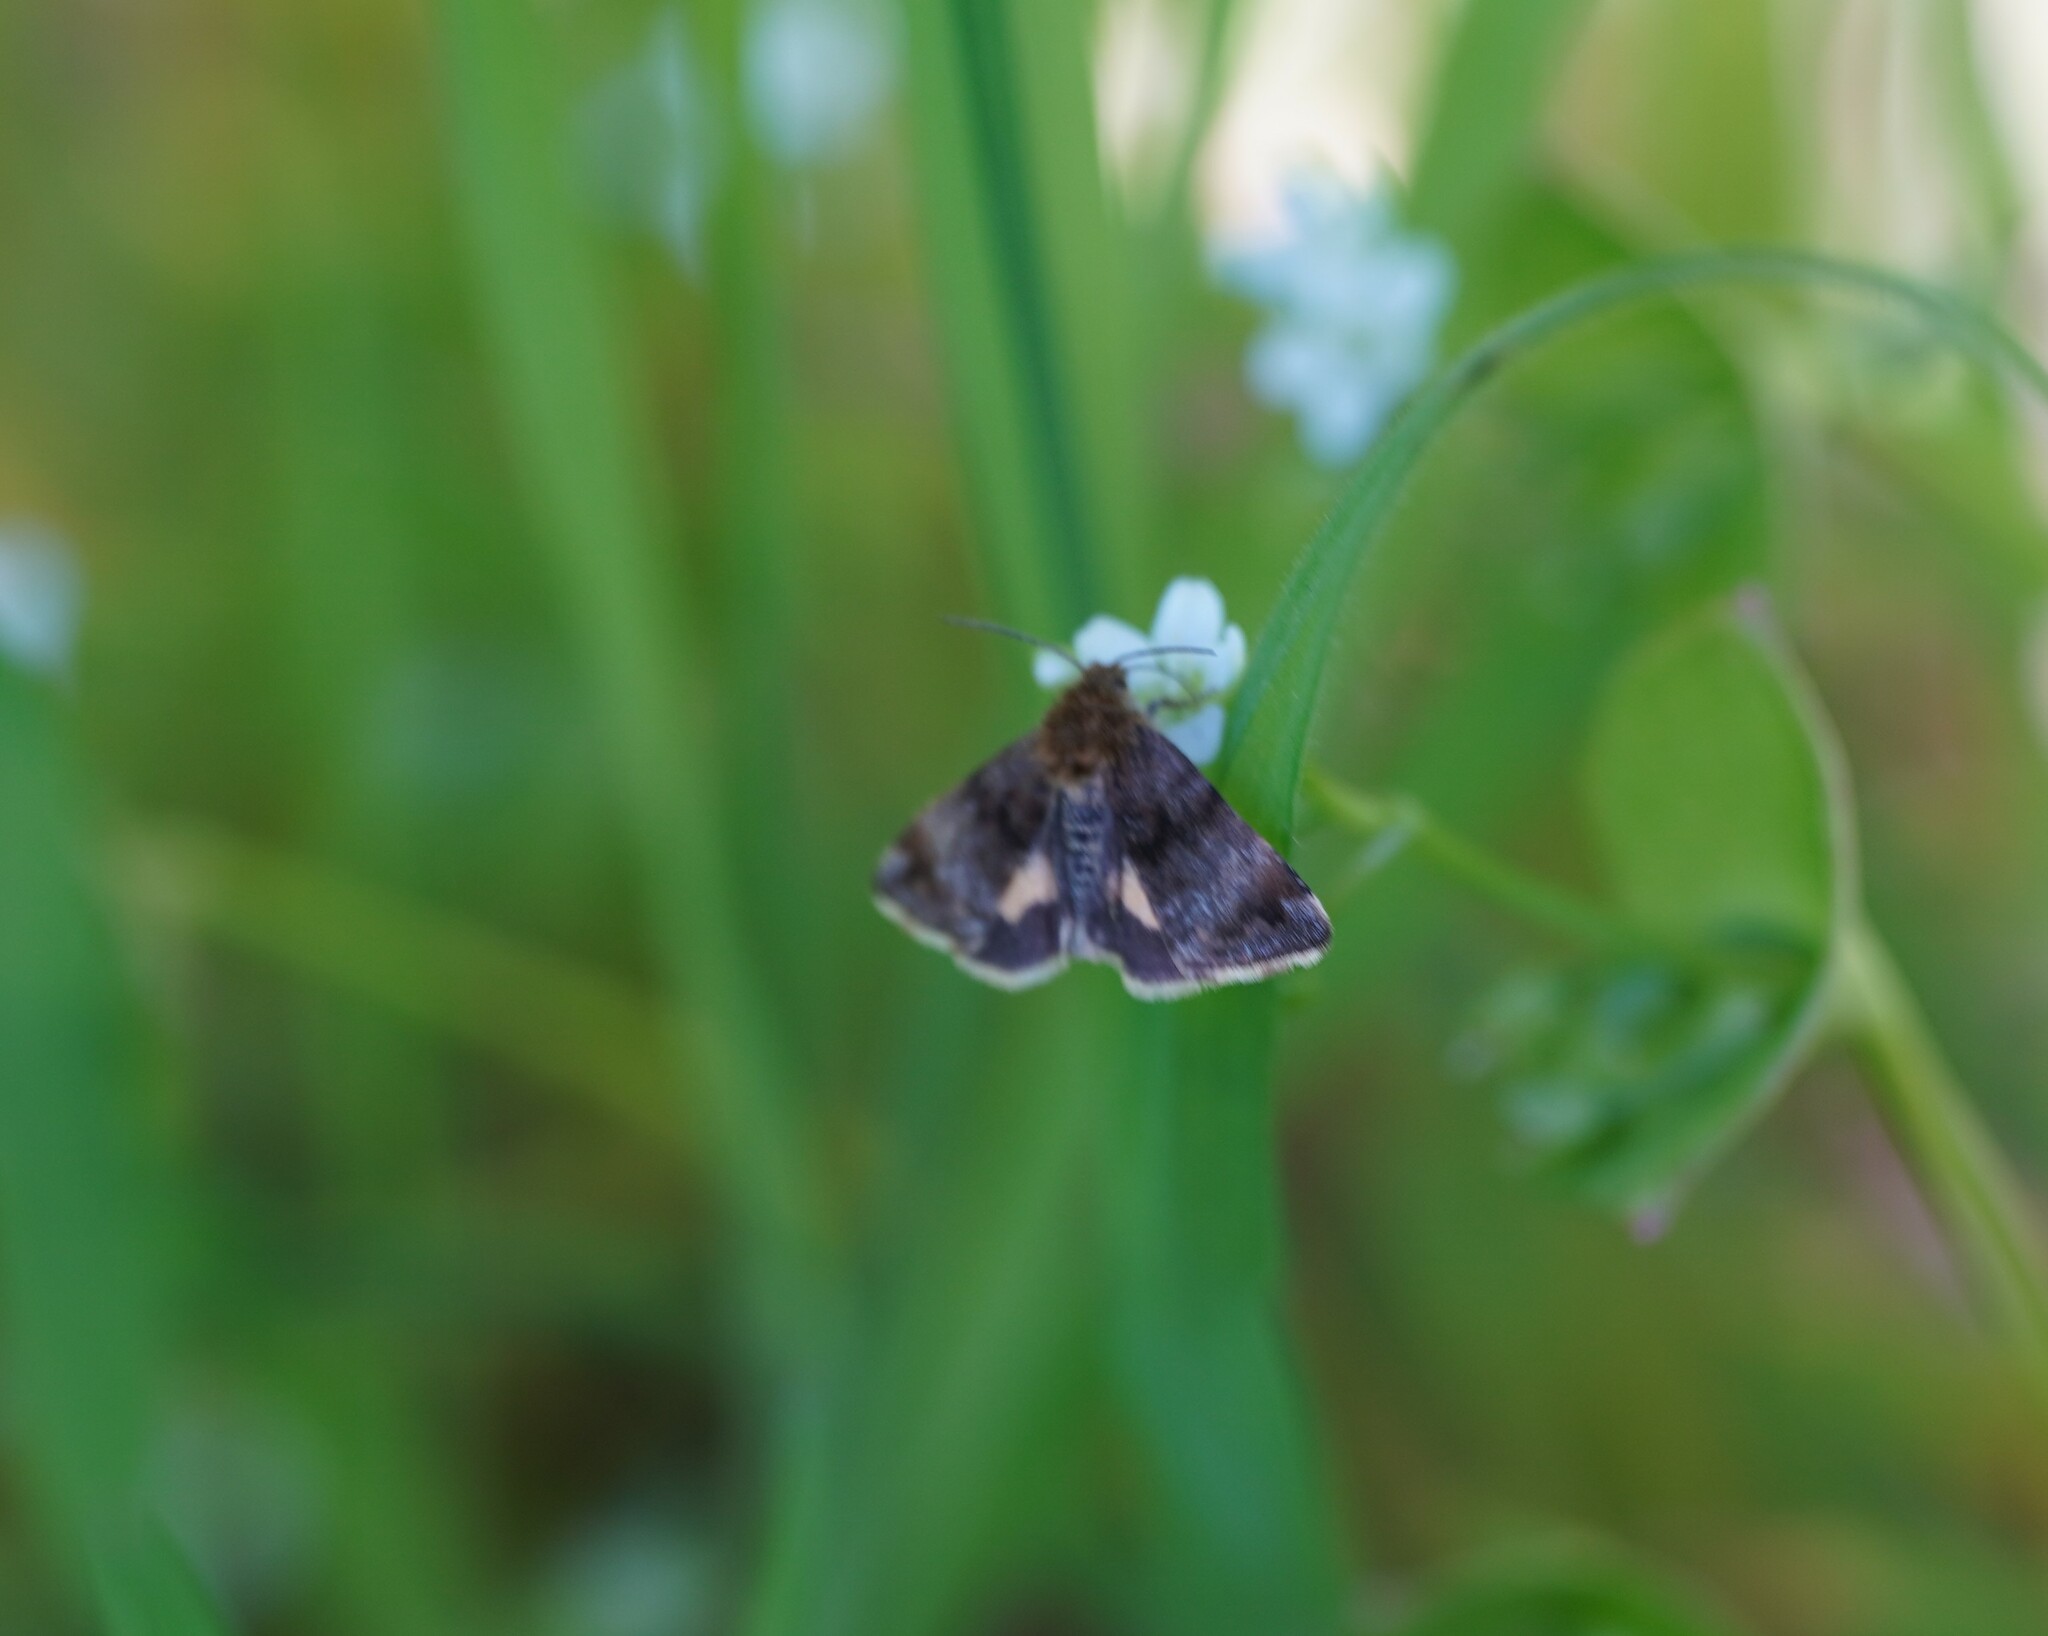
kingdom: Animalia
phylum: Arthropoda
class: Insecta
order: Lepidoptera
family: Noctuidae
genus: Panemeria
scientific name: Panemeria tenebrata
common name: Small yellow underwing
